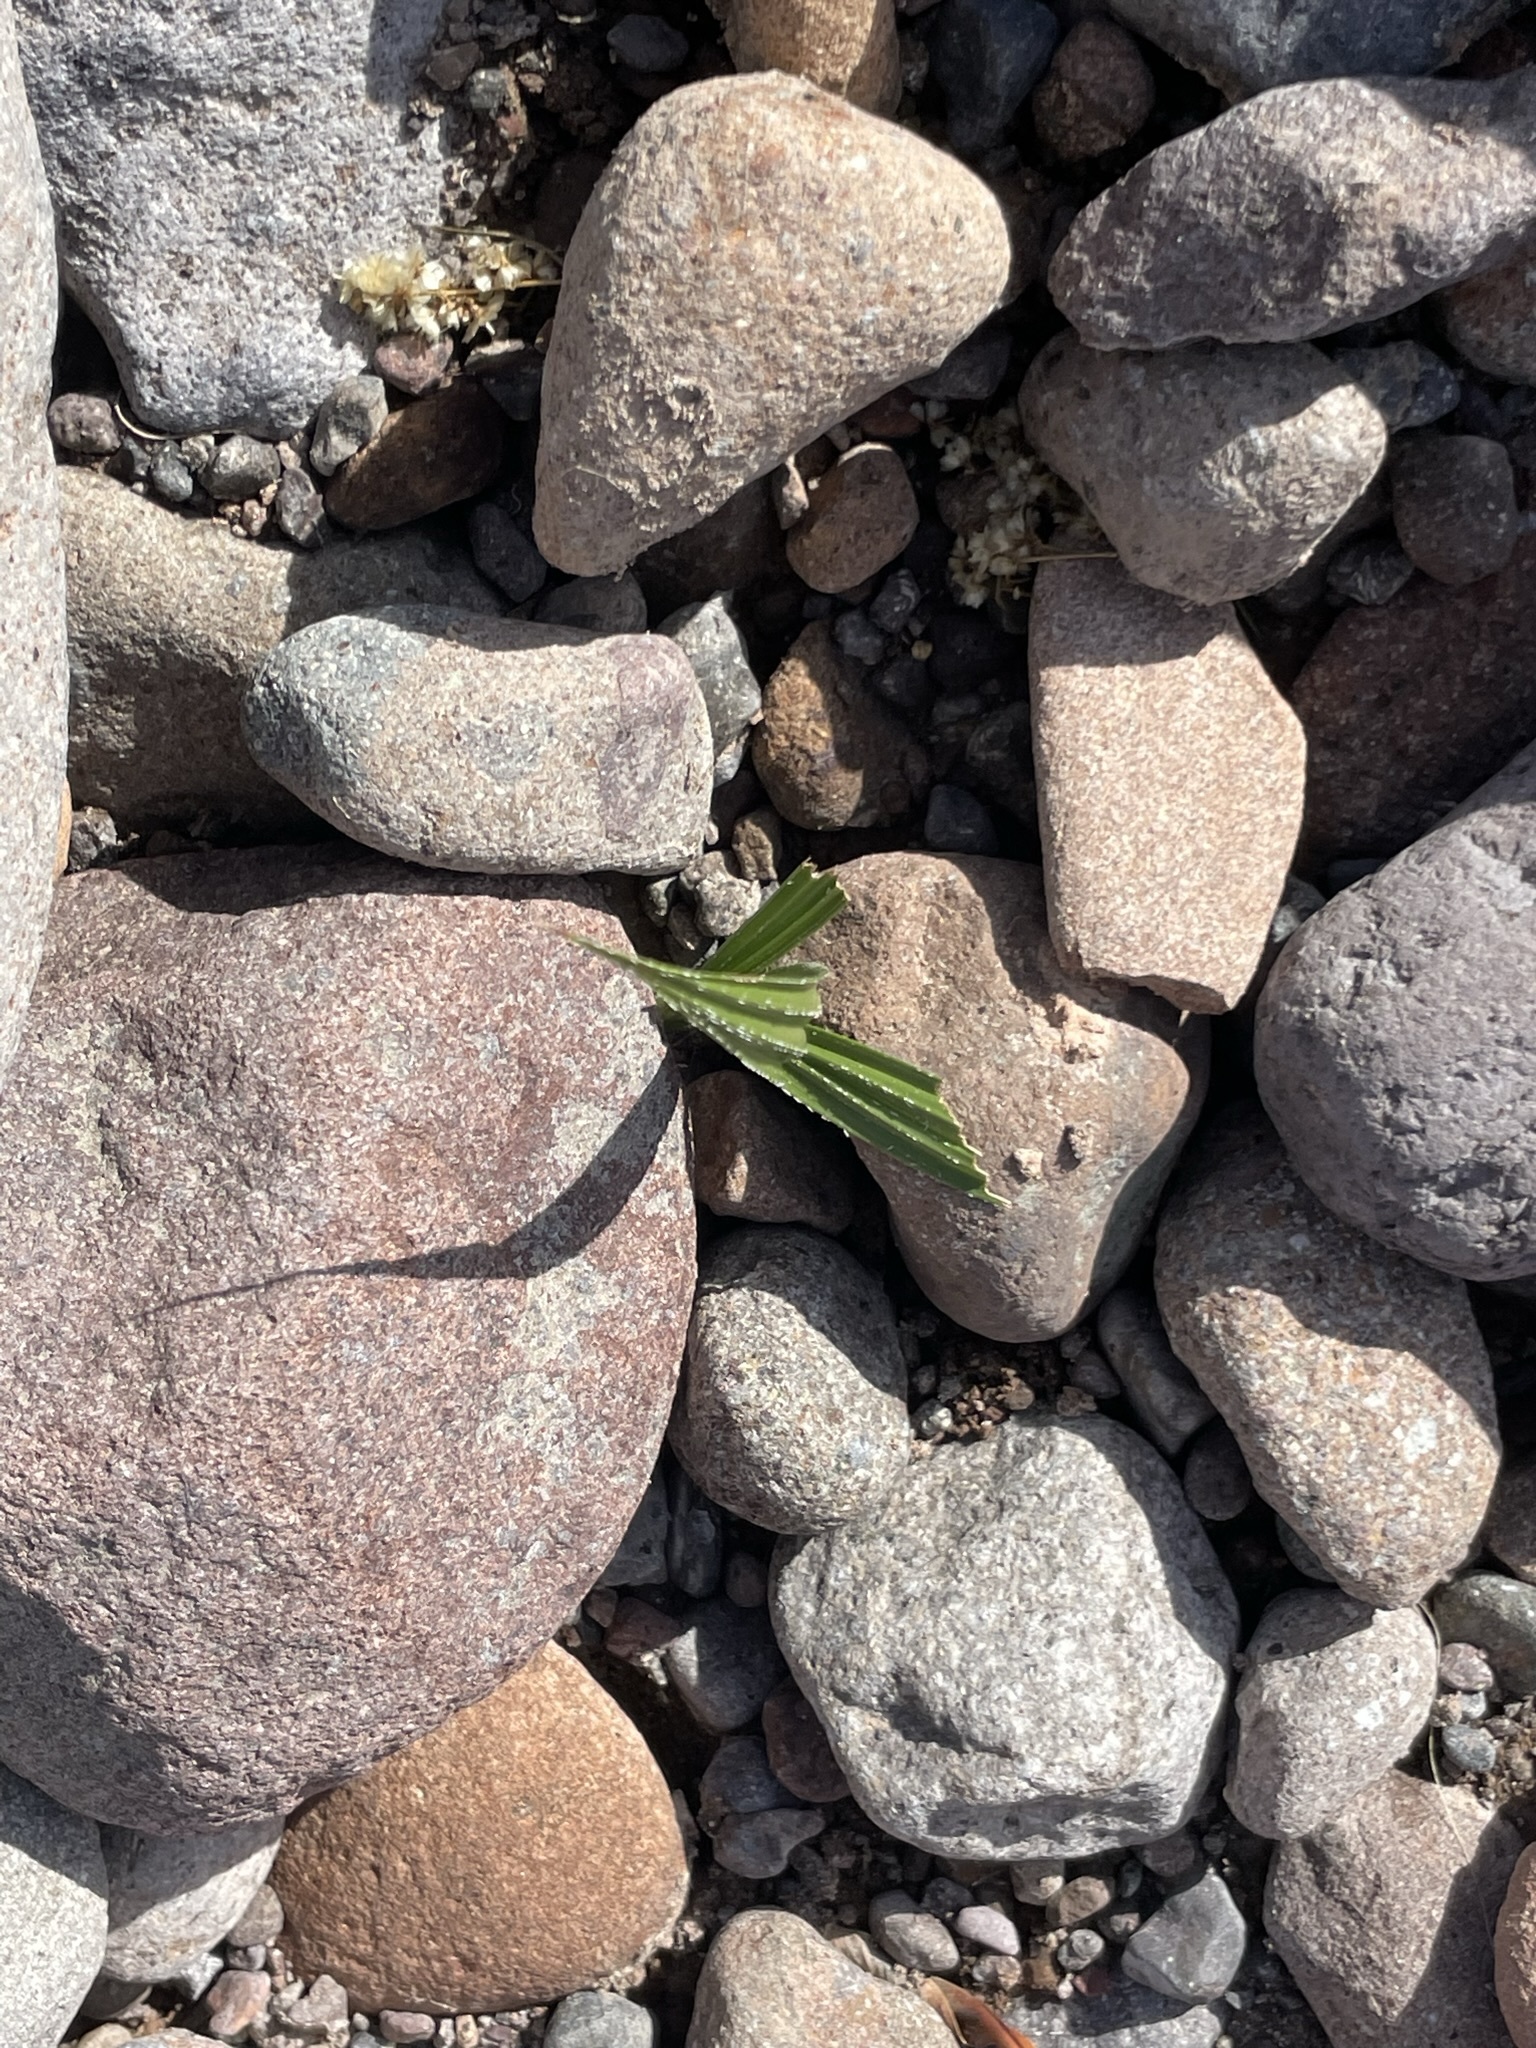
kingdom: Plantae
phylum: Tracheophyta
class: Liliopsida
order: Arecales
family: Arecaceae
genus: Washingtonia
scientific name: Washingtonia robusta
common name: Mexican fan palm
